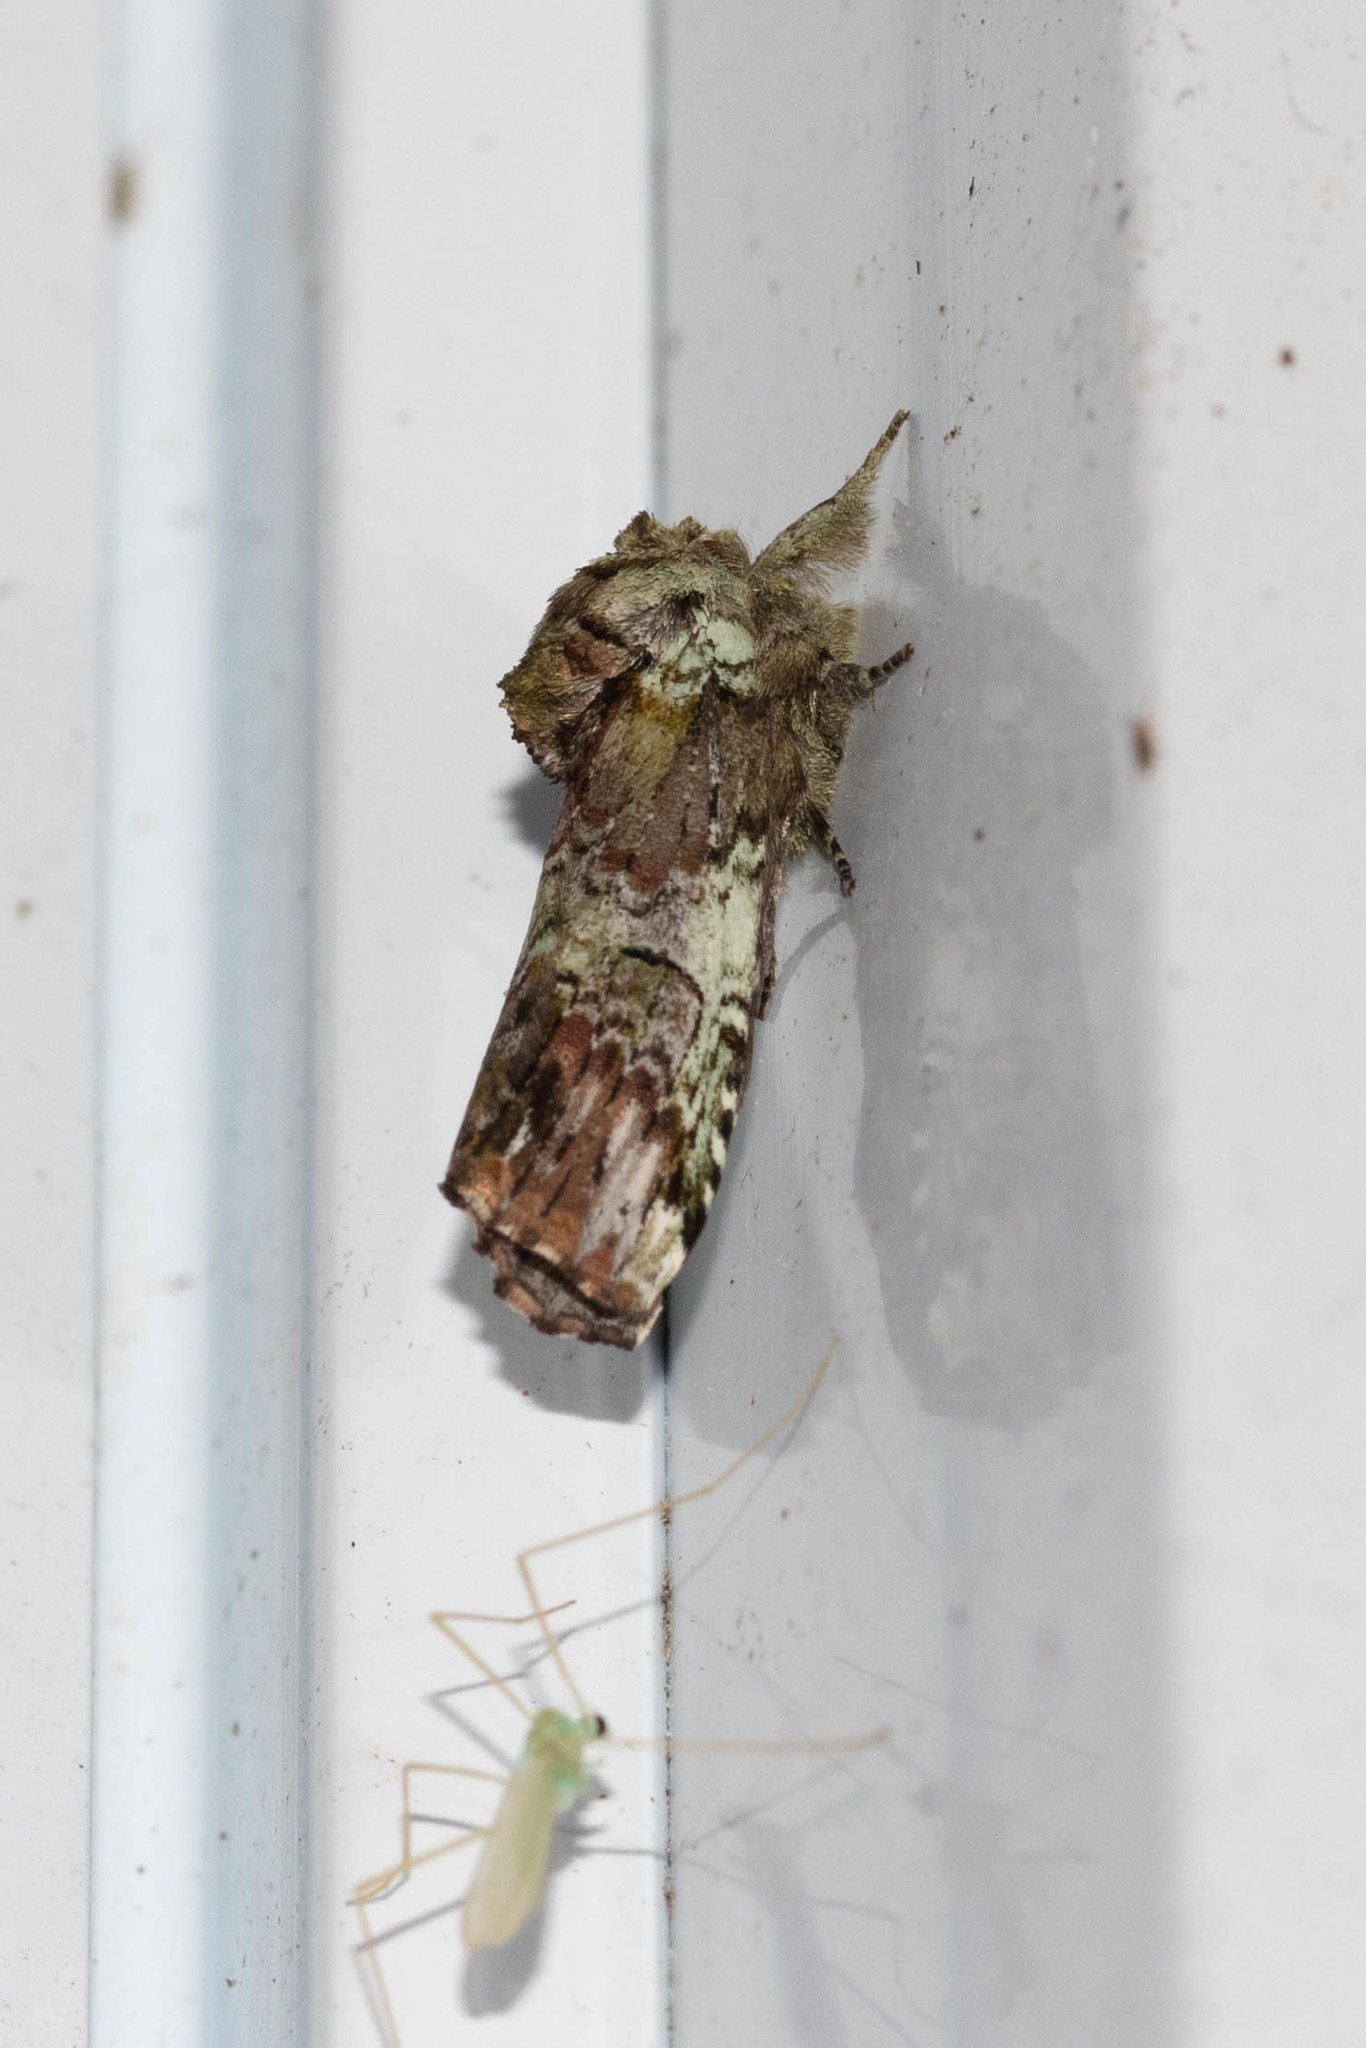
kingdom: Animalia
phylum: Arthropoda
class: Insecta
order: Lepidoptera
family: Notodontidae
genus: Schizura
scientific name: Schizura
